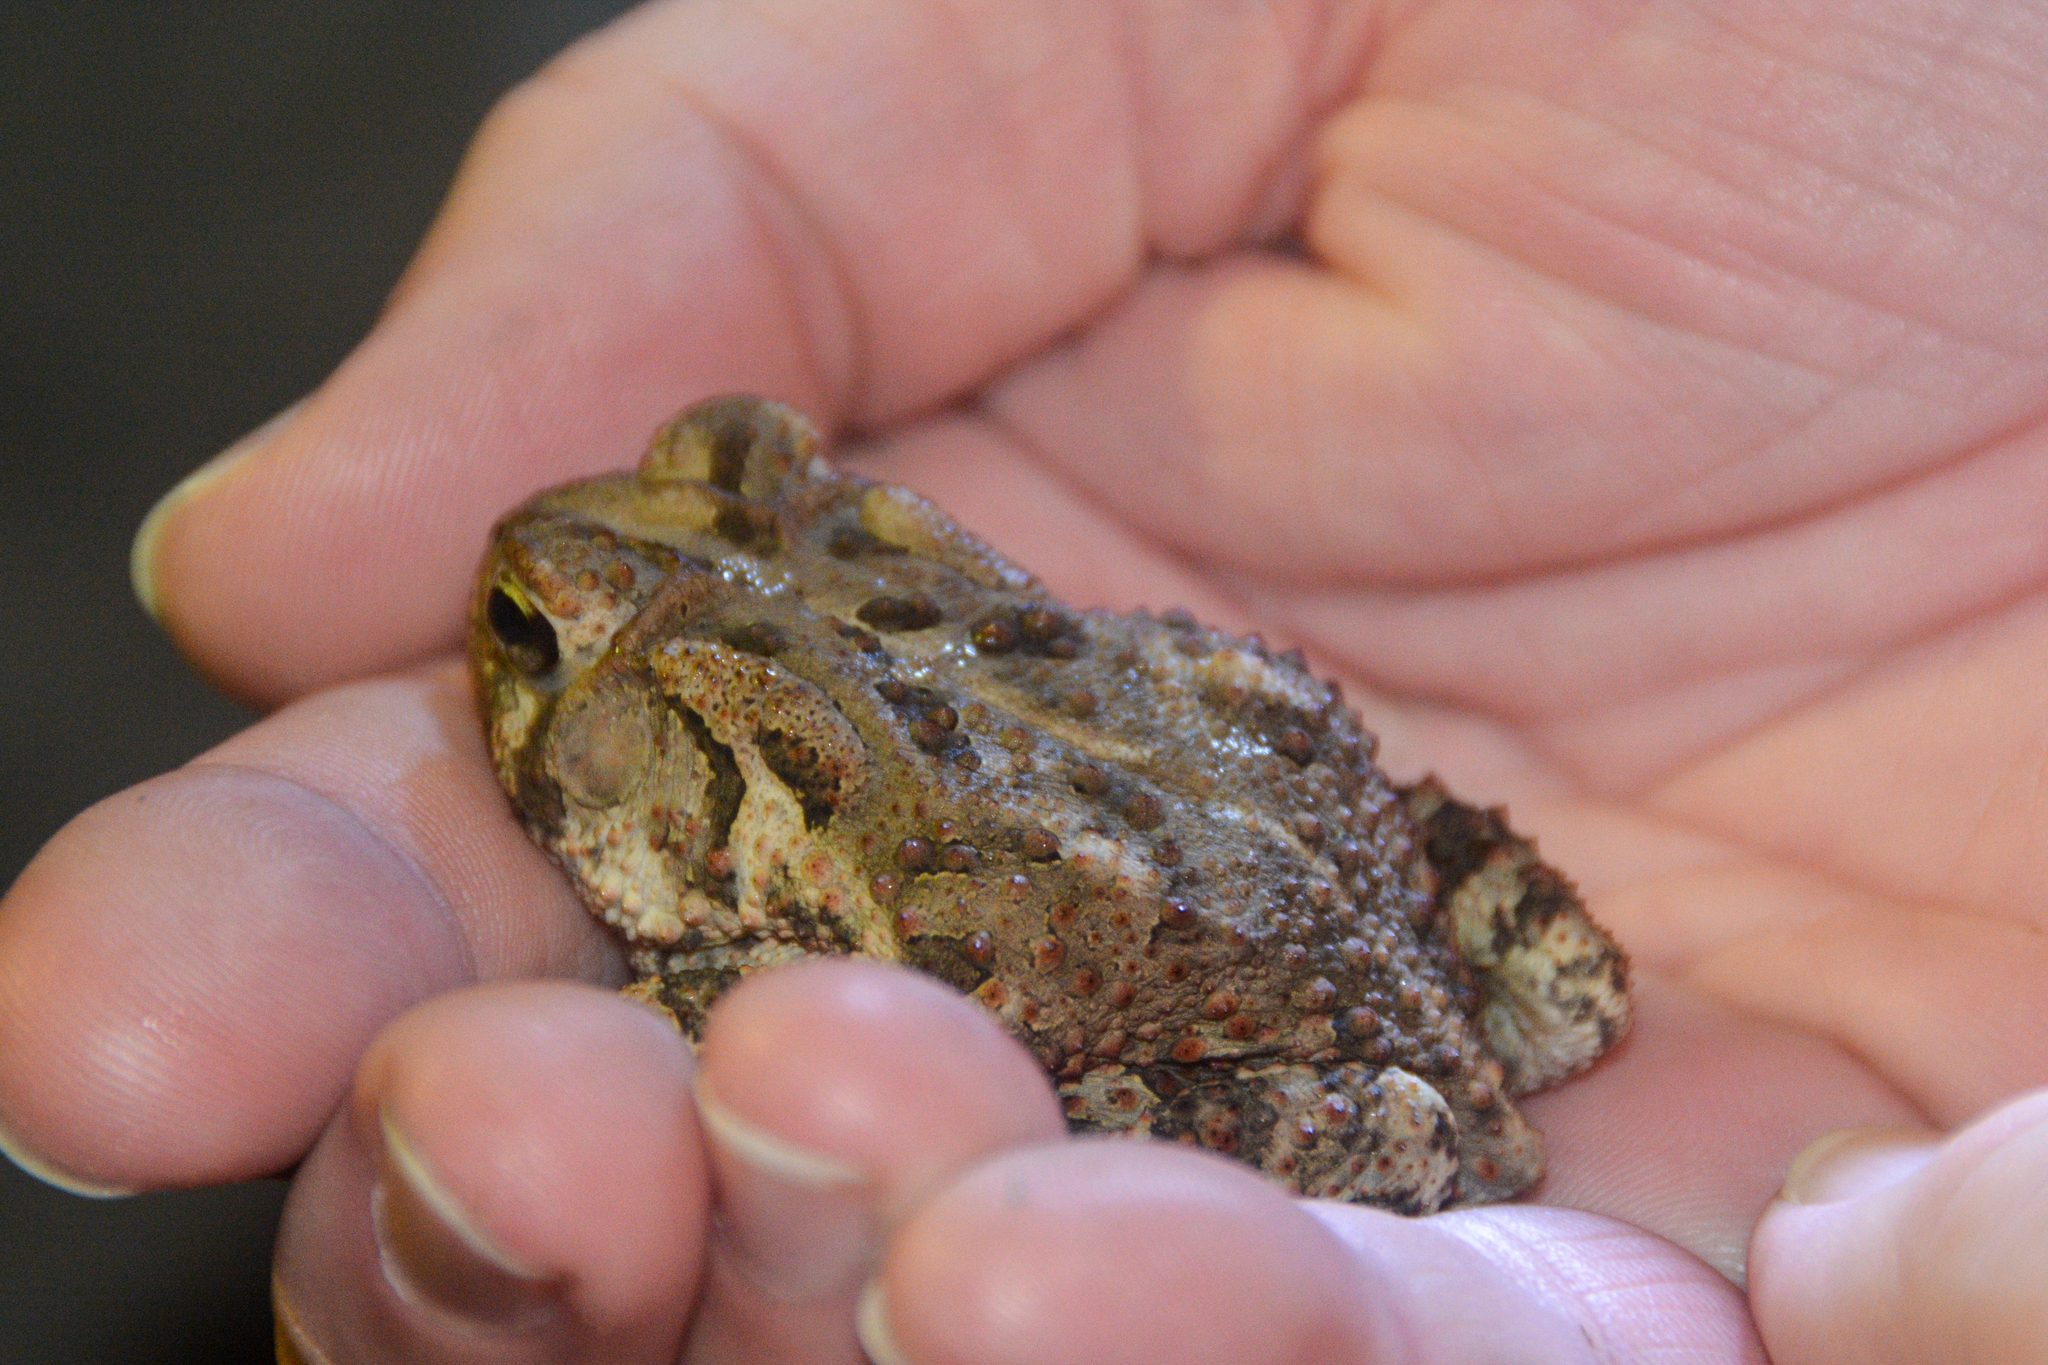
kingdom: Animalia
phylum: Chordata
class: Amphibia
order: Anura
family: Bufonidae
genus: Anaxyrus
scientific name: Anaxyrus fowleri
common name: Fowler's toad
